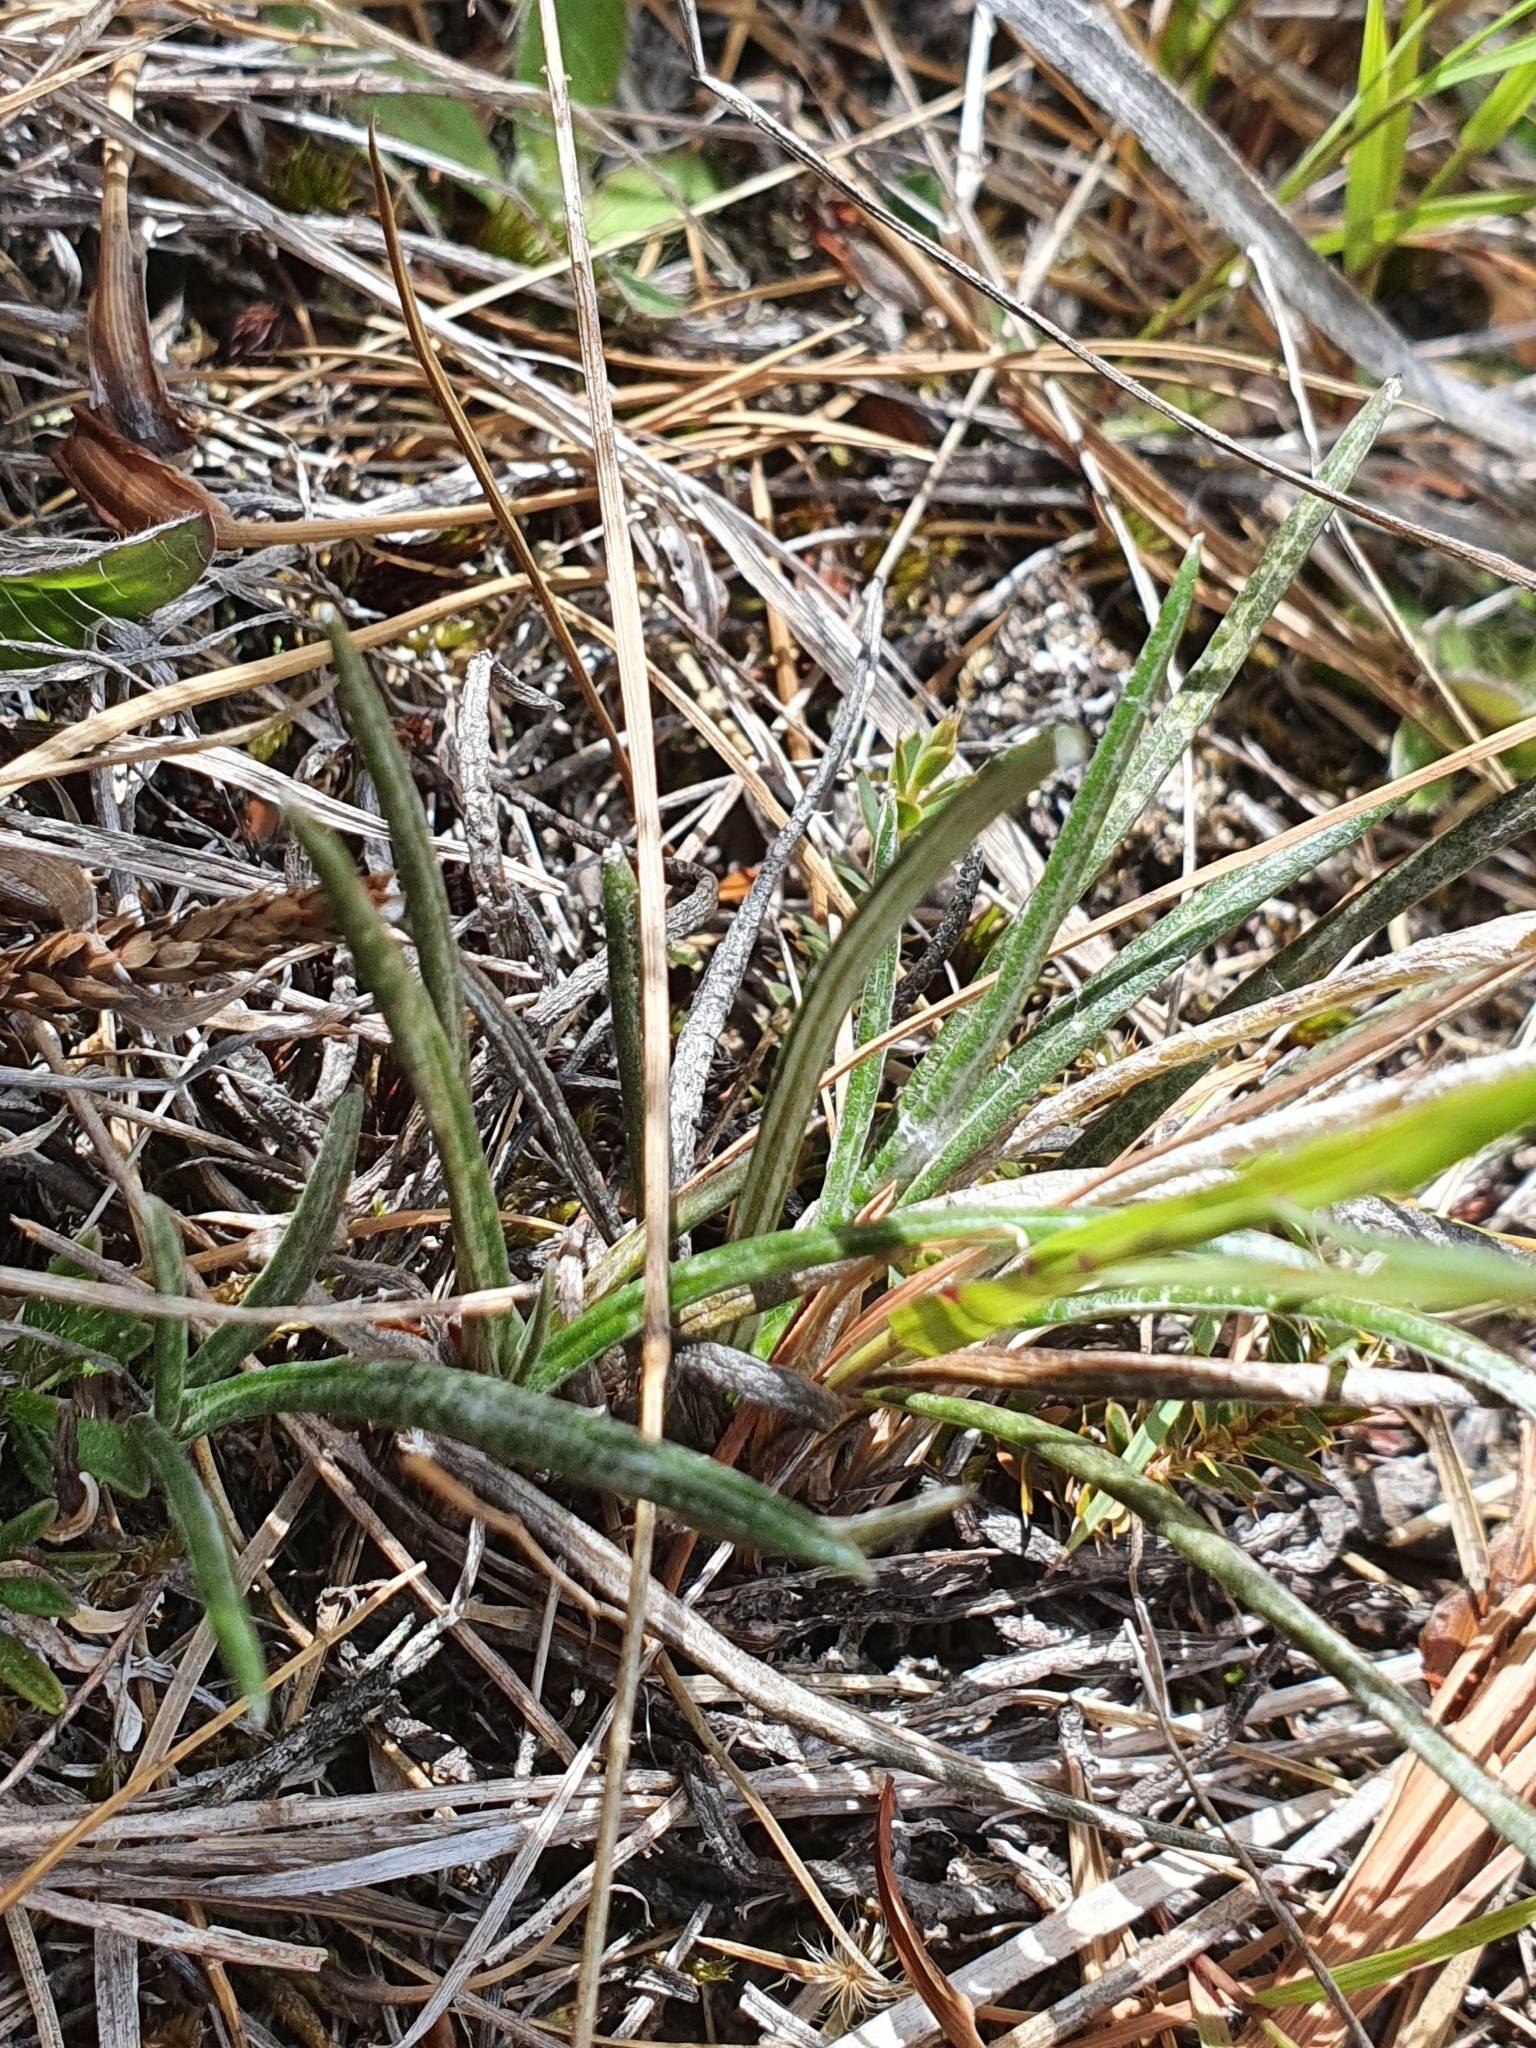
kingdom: Plantae
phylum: Tracheophyta
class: Magnoliopsida
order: Asterales
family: Asteraceae
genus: Celmisia
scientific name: Celmisia gracilenta
